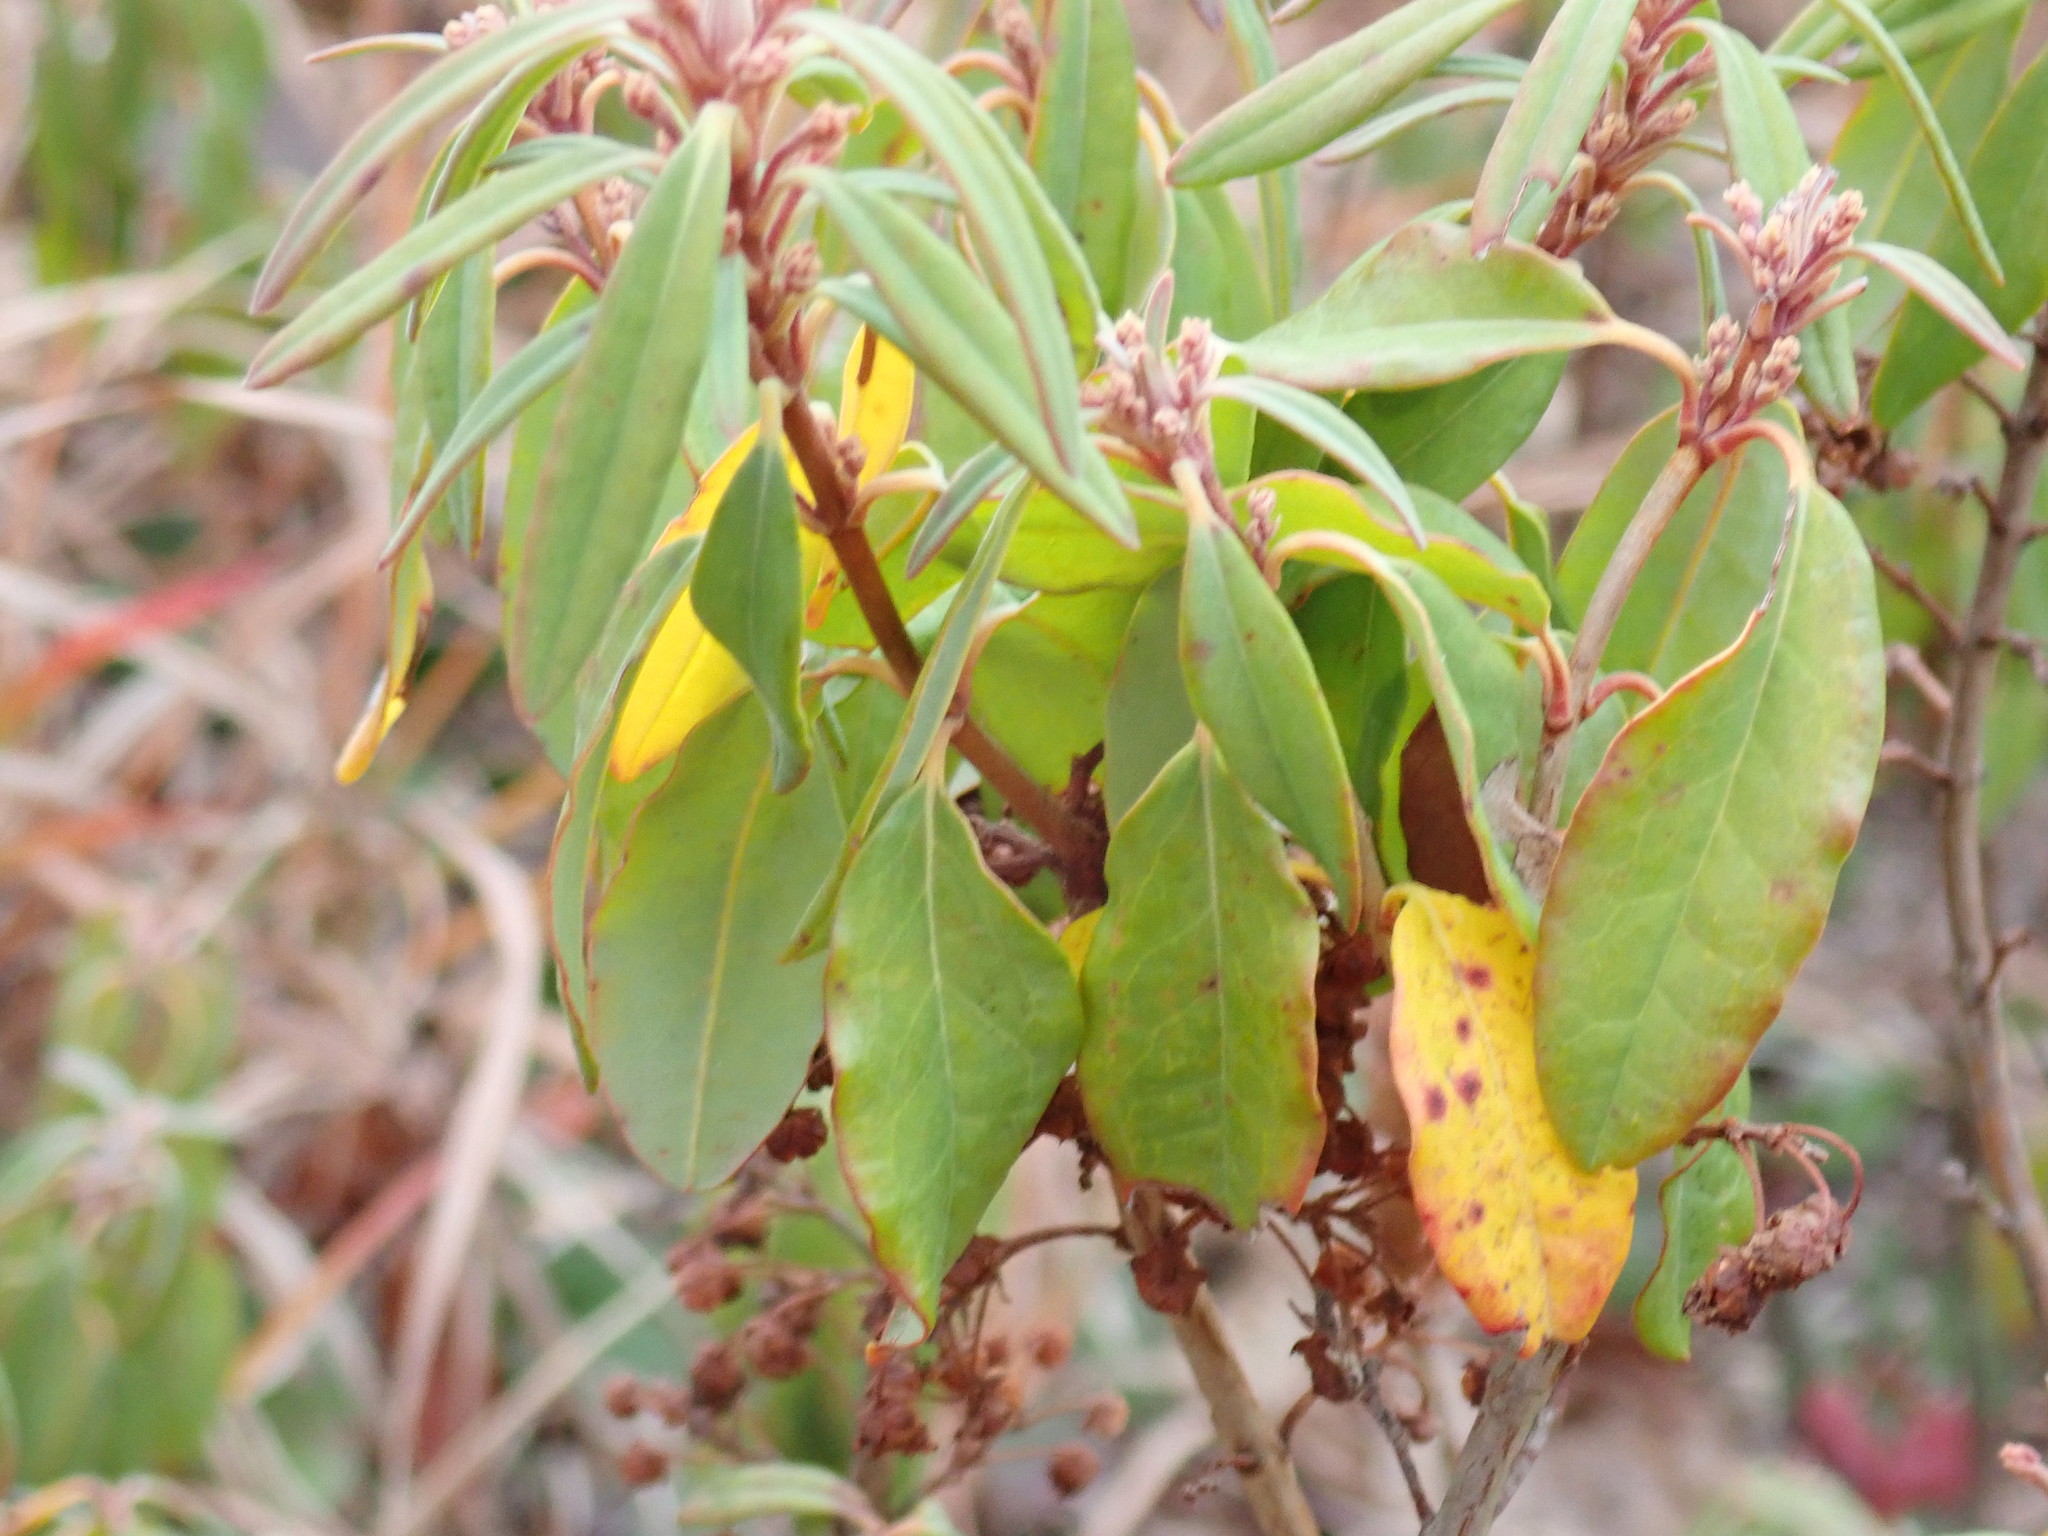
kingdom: Plantae
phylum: Tracheophyta
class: Magnoliopsida
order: Ericales
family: Ericaceae
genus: Kalmia
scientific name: Kalmia angustifolia
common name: Sheep-laurel
